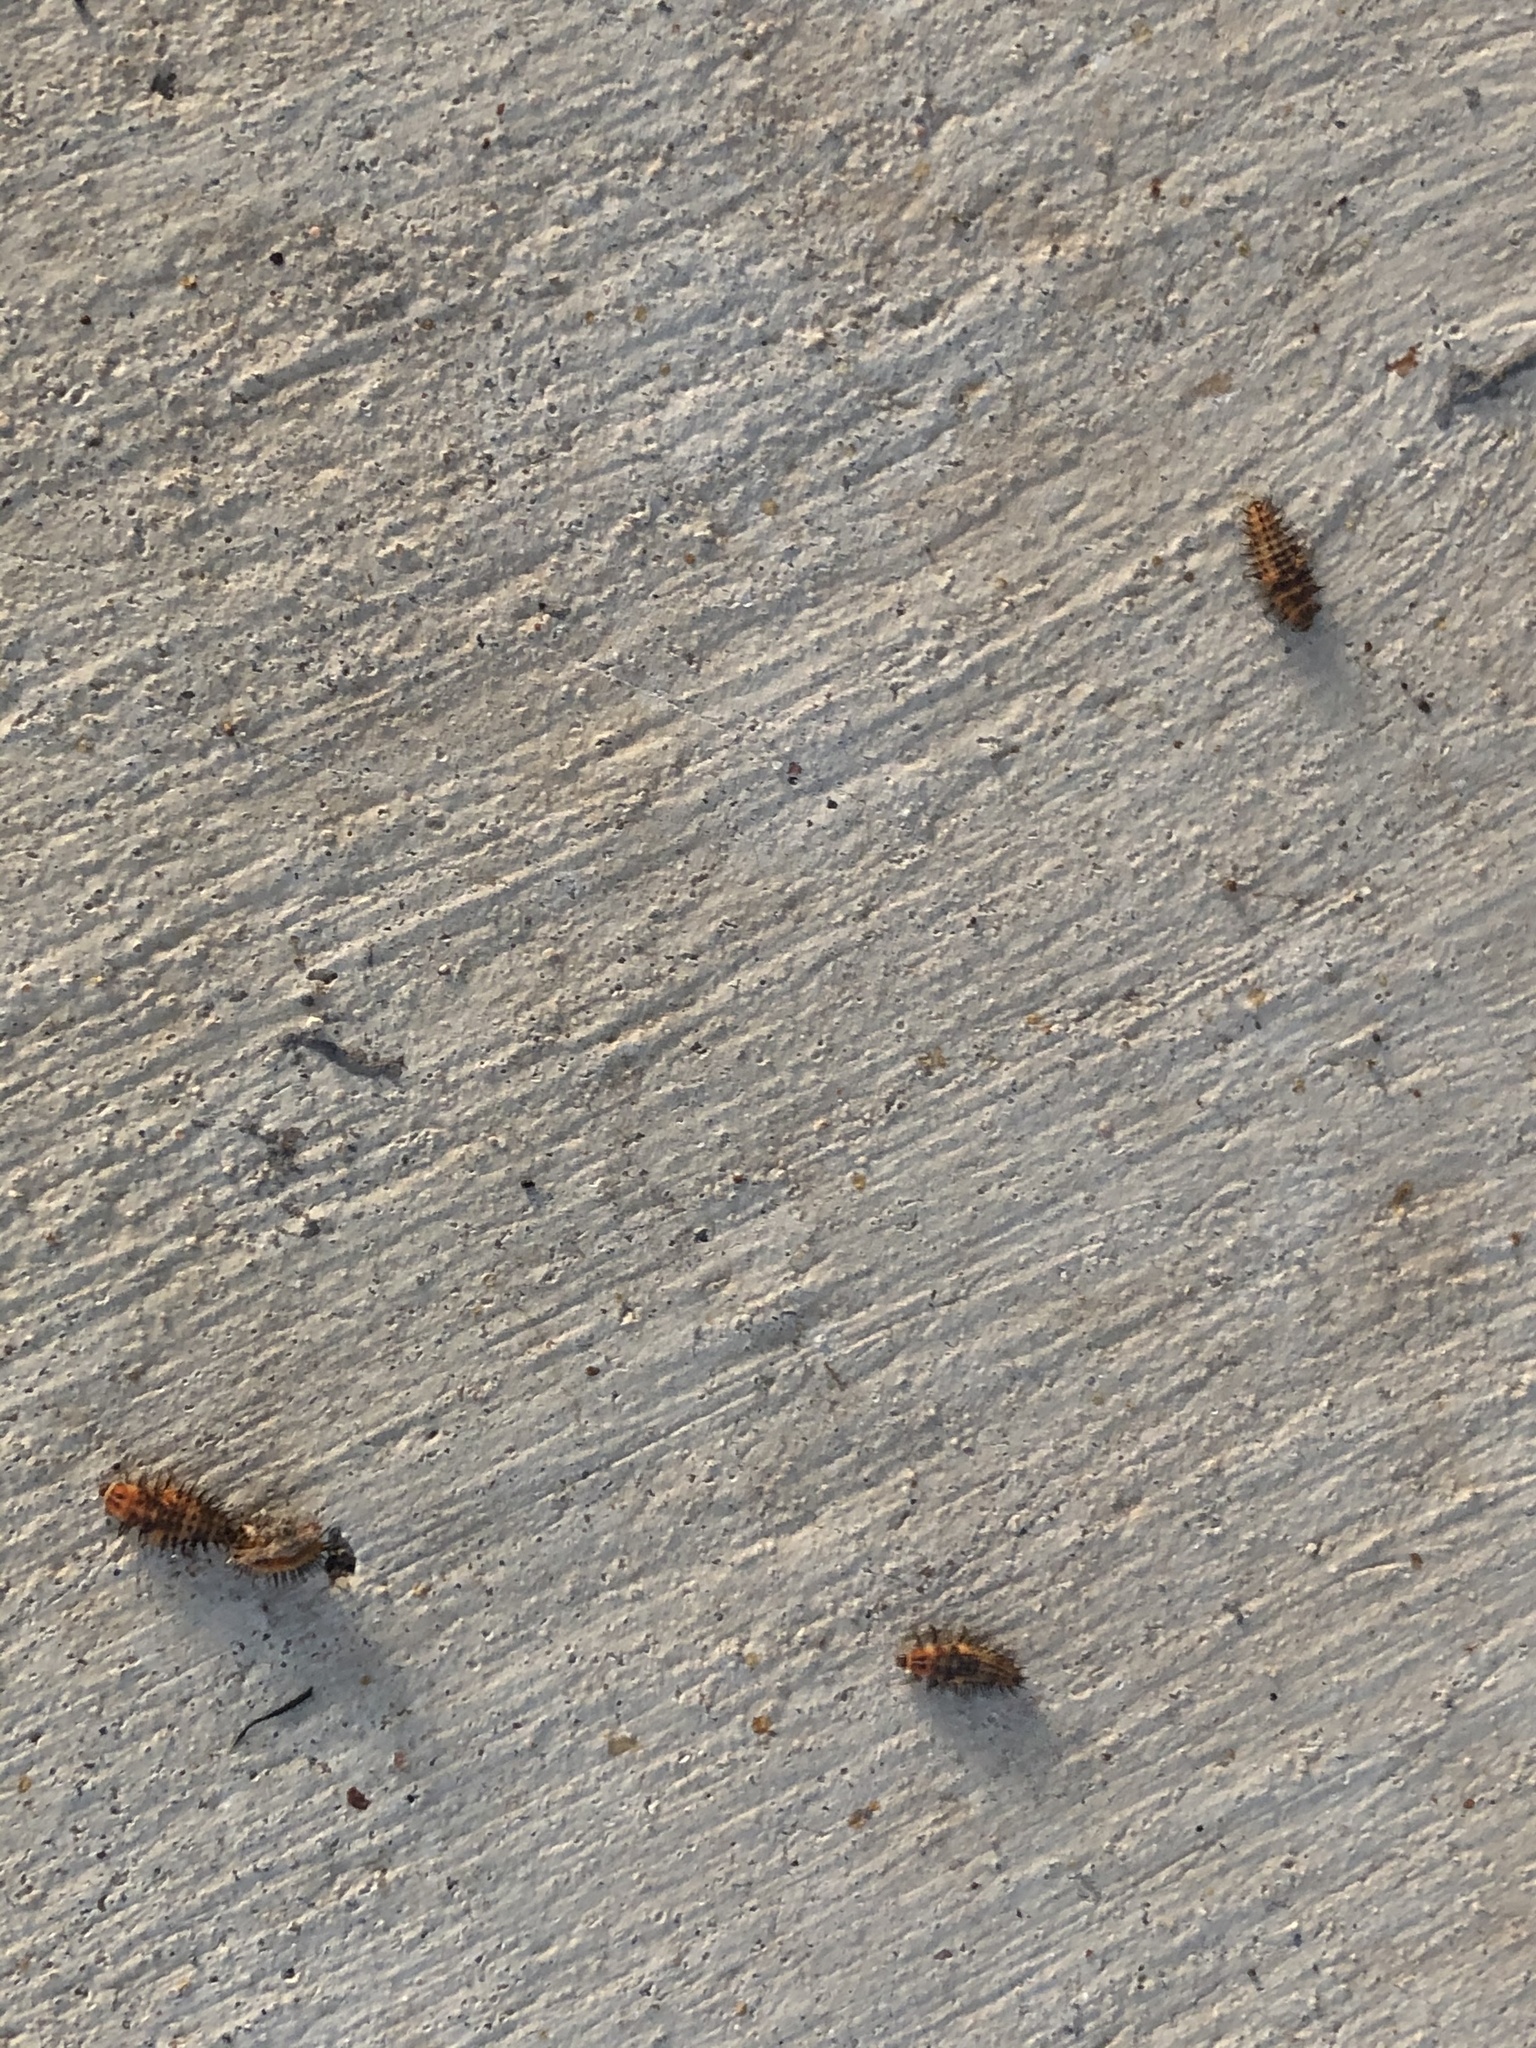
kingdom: Animalia
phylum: Arthropoda
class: Insecta
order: Coleoptera
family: Coccinellidae
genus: Axion
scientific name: Axion plagiatum
